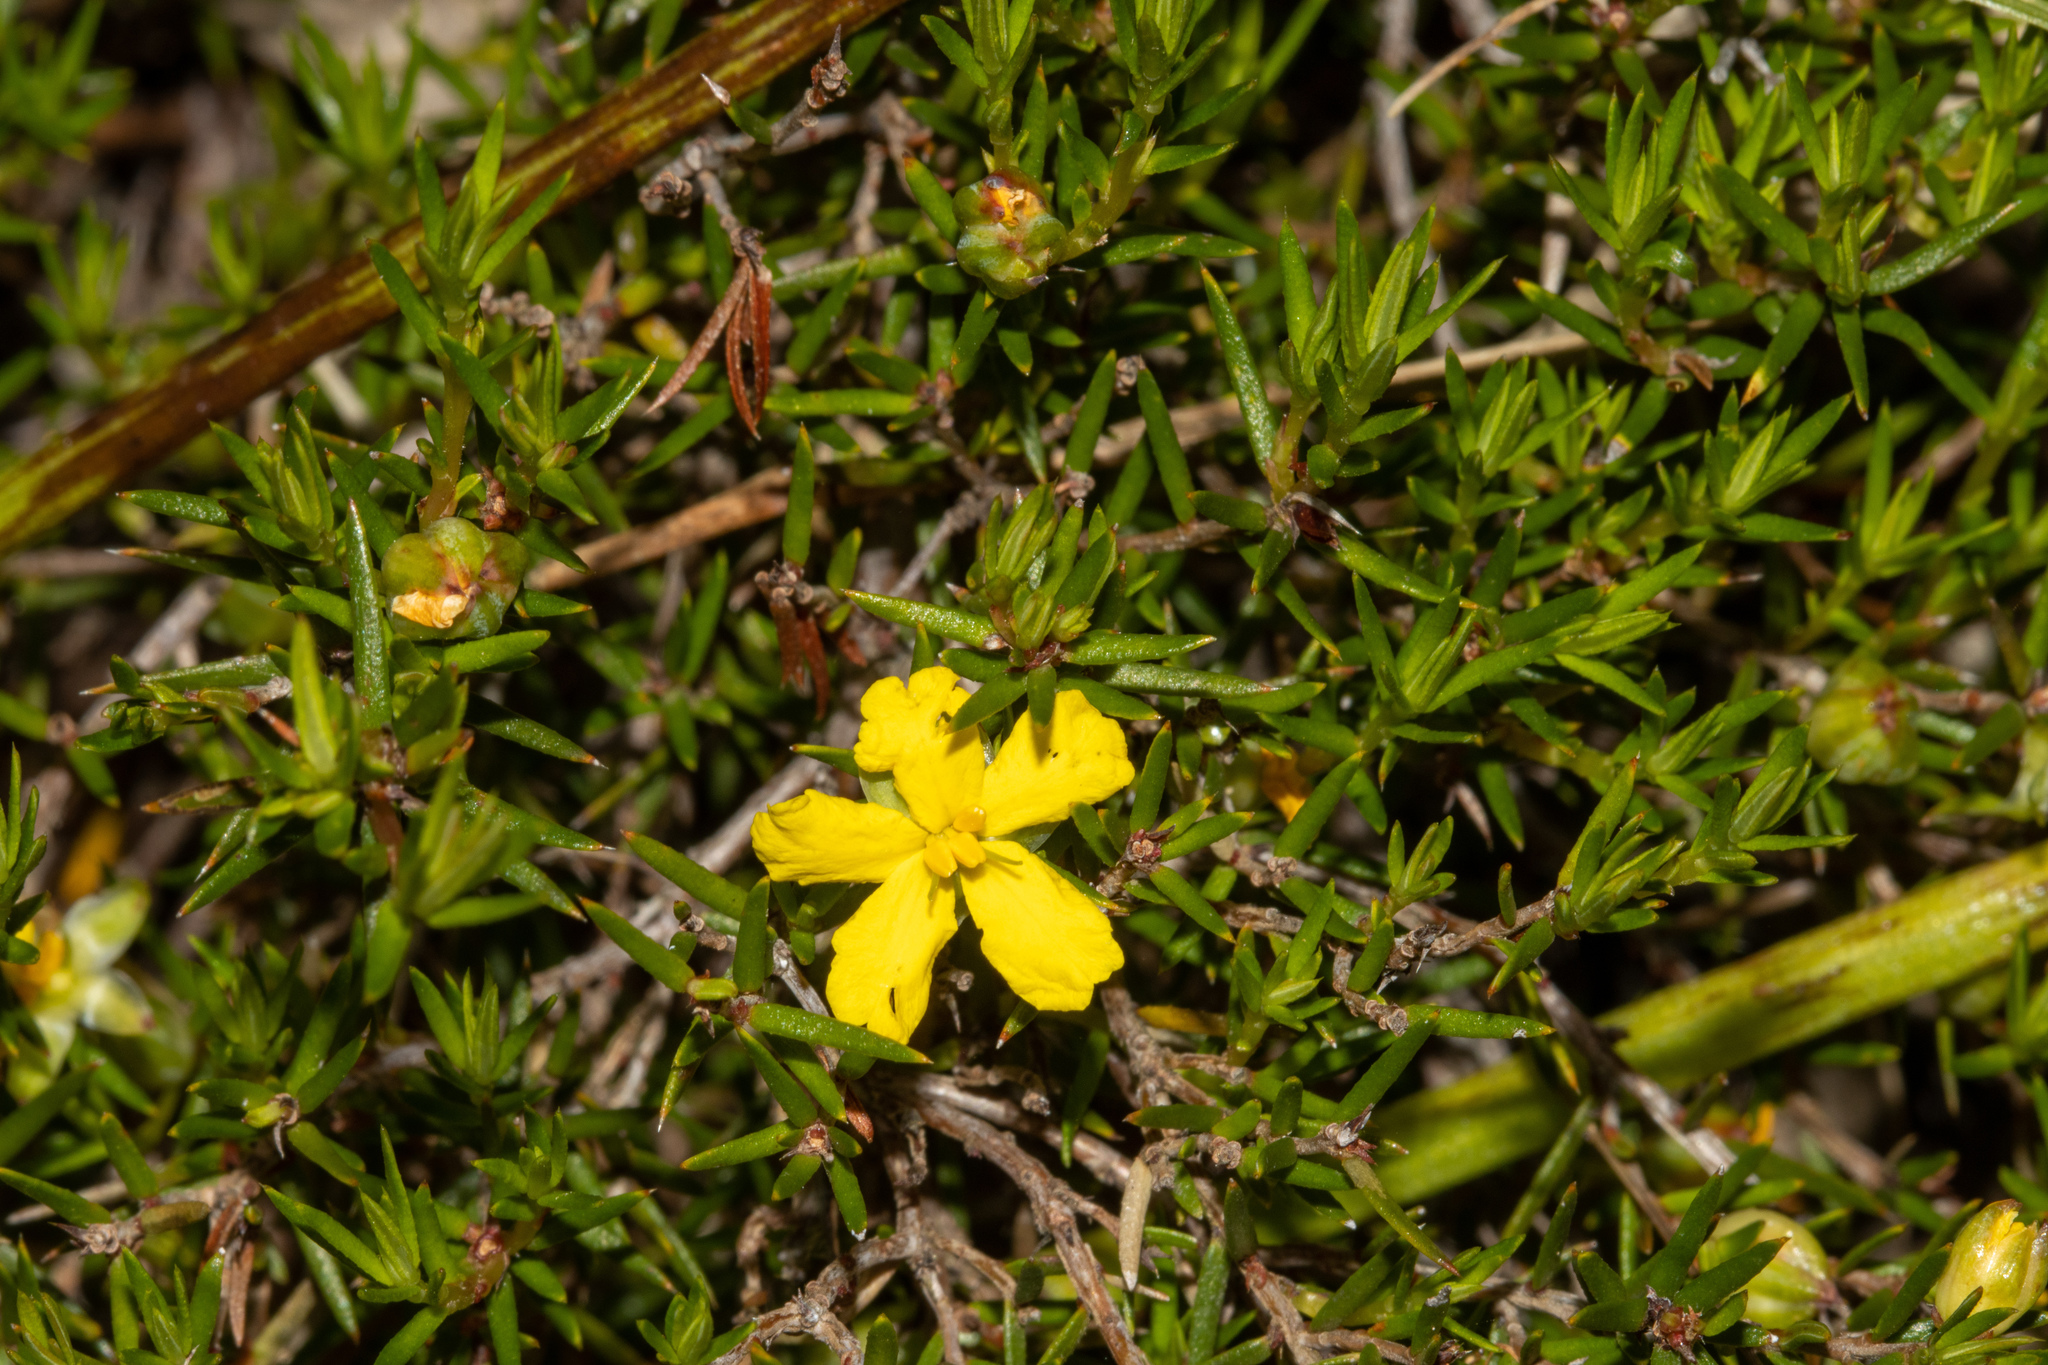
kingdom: Plantae
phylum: Tracheophyta
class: Magnoliopsida
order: Dilleniales
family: Dilleniaceae
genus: Hibbertia
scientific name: Hibbertia exutiacies
